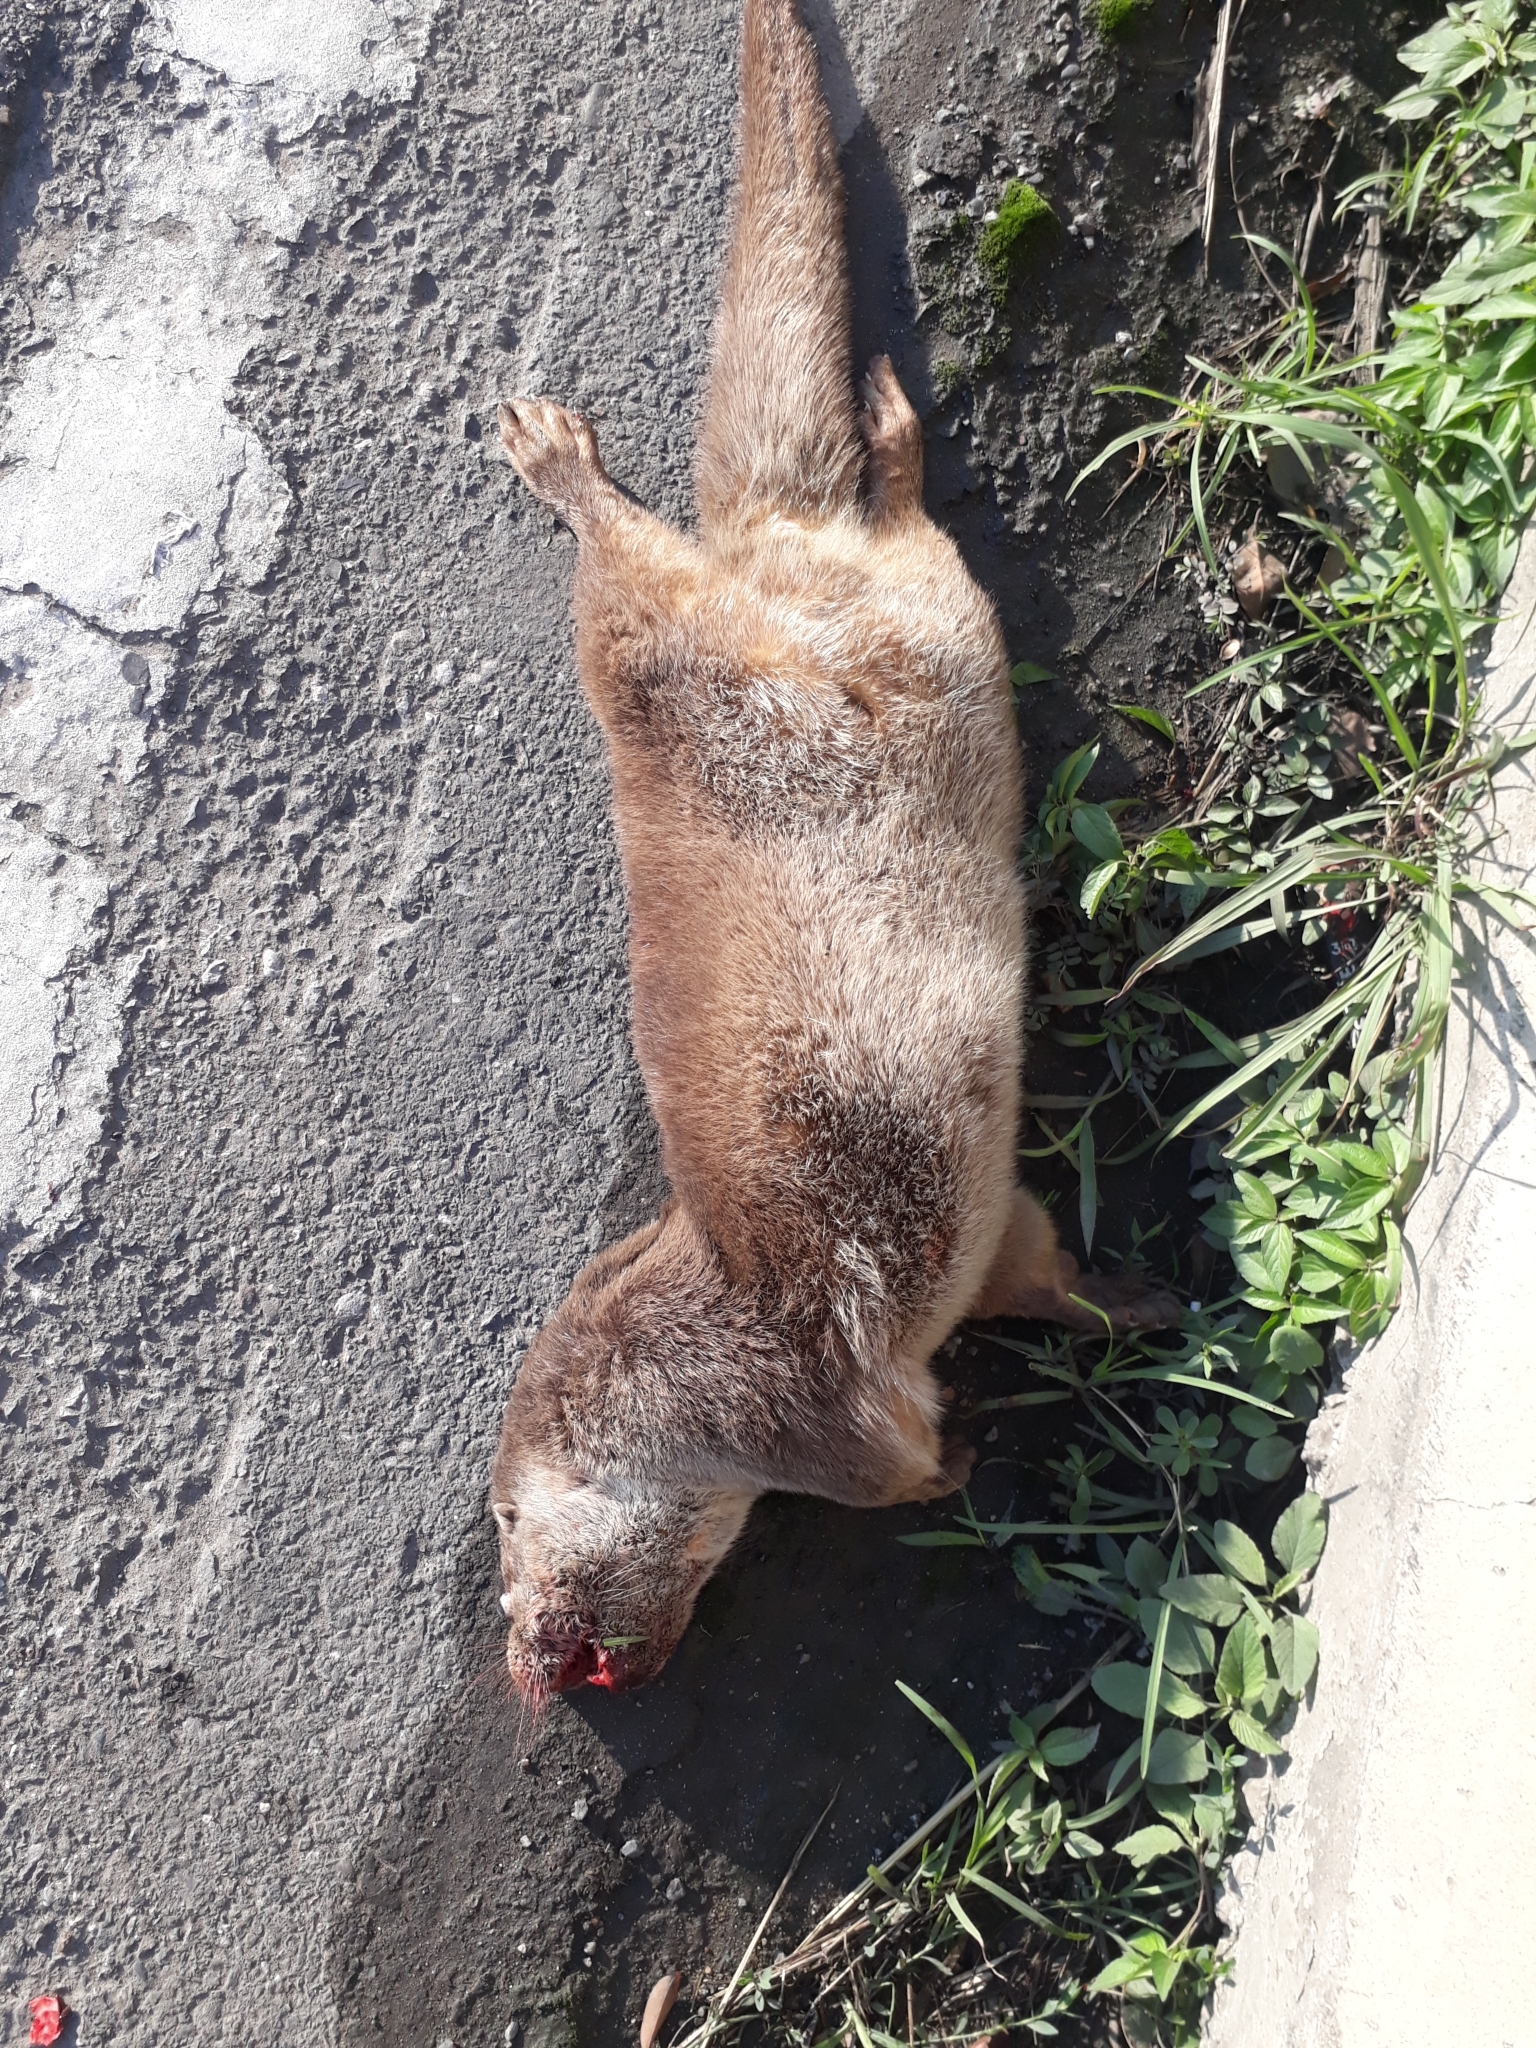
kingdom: Animalia
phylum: Chordata
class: Mammalia
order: Carnivora
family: Mustelidae
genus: Lutra
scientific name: Lutra lutra
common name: European otter
